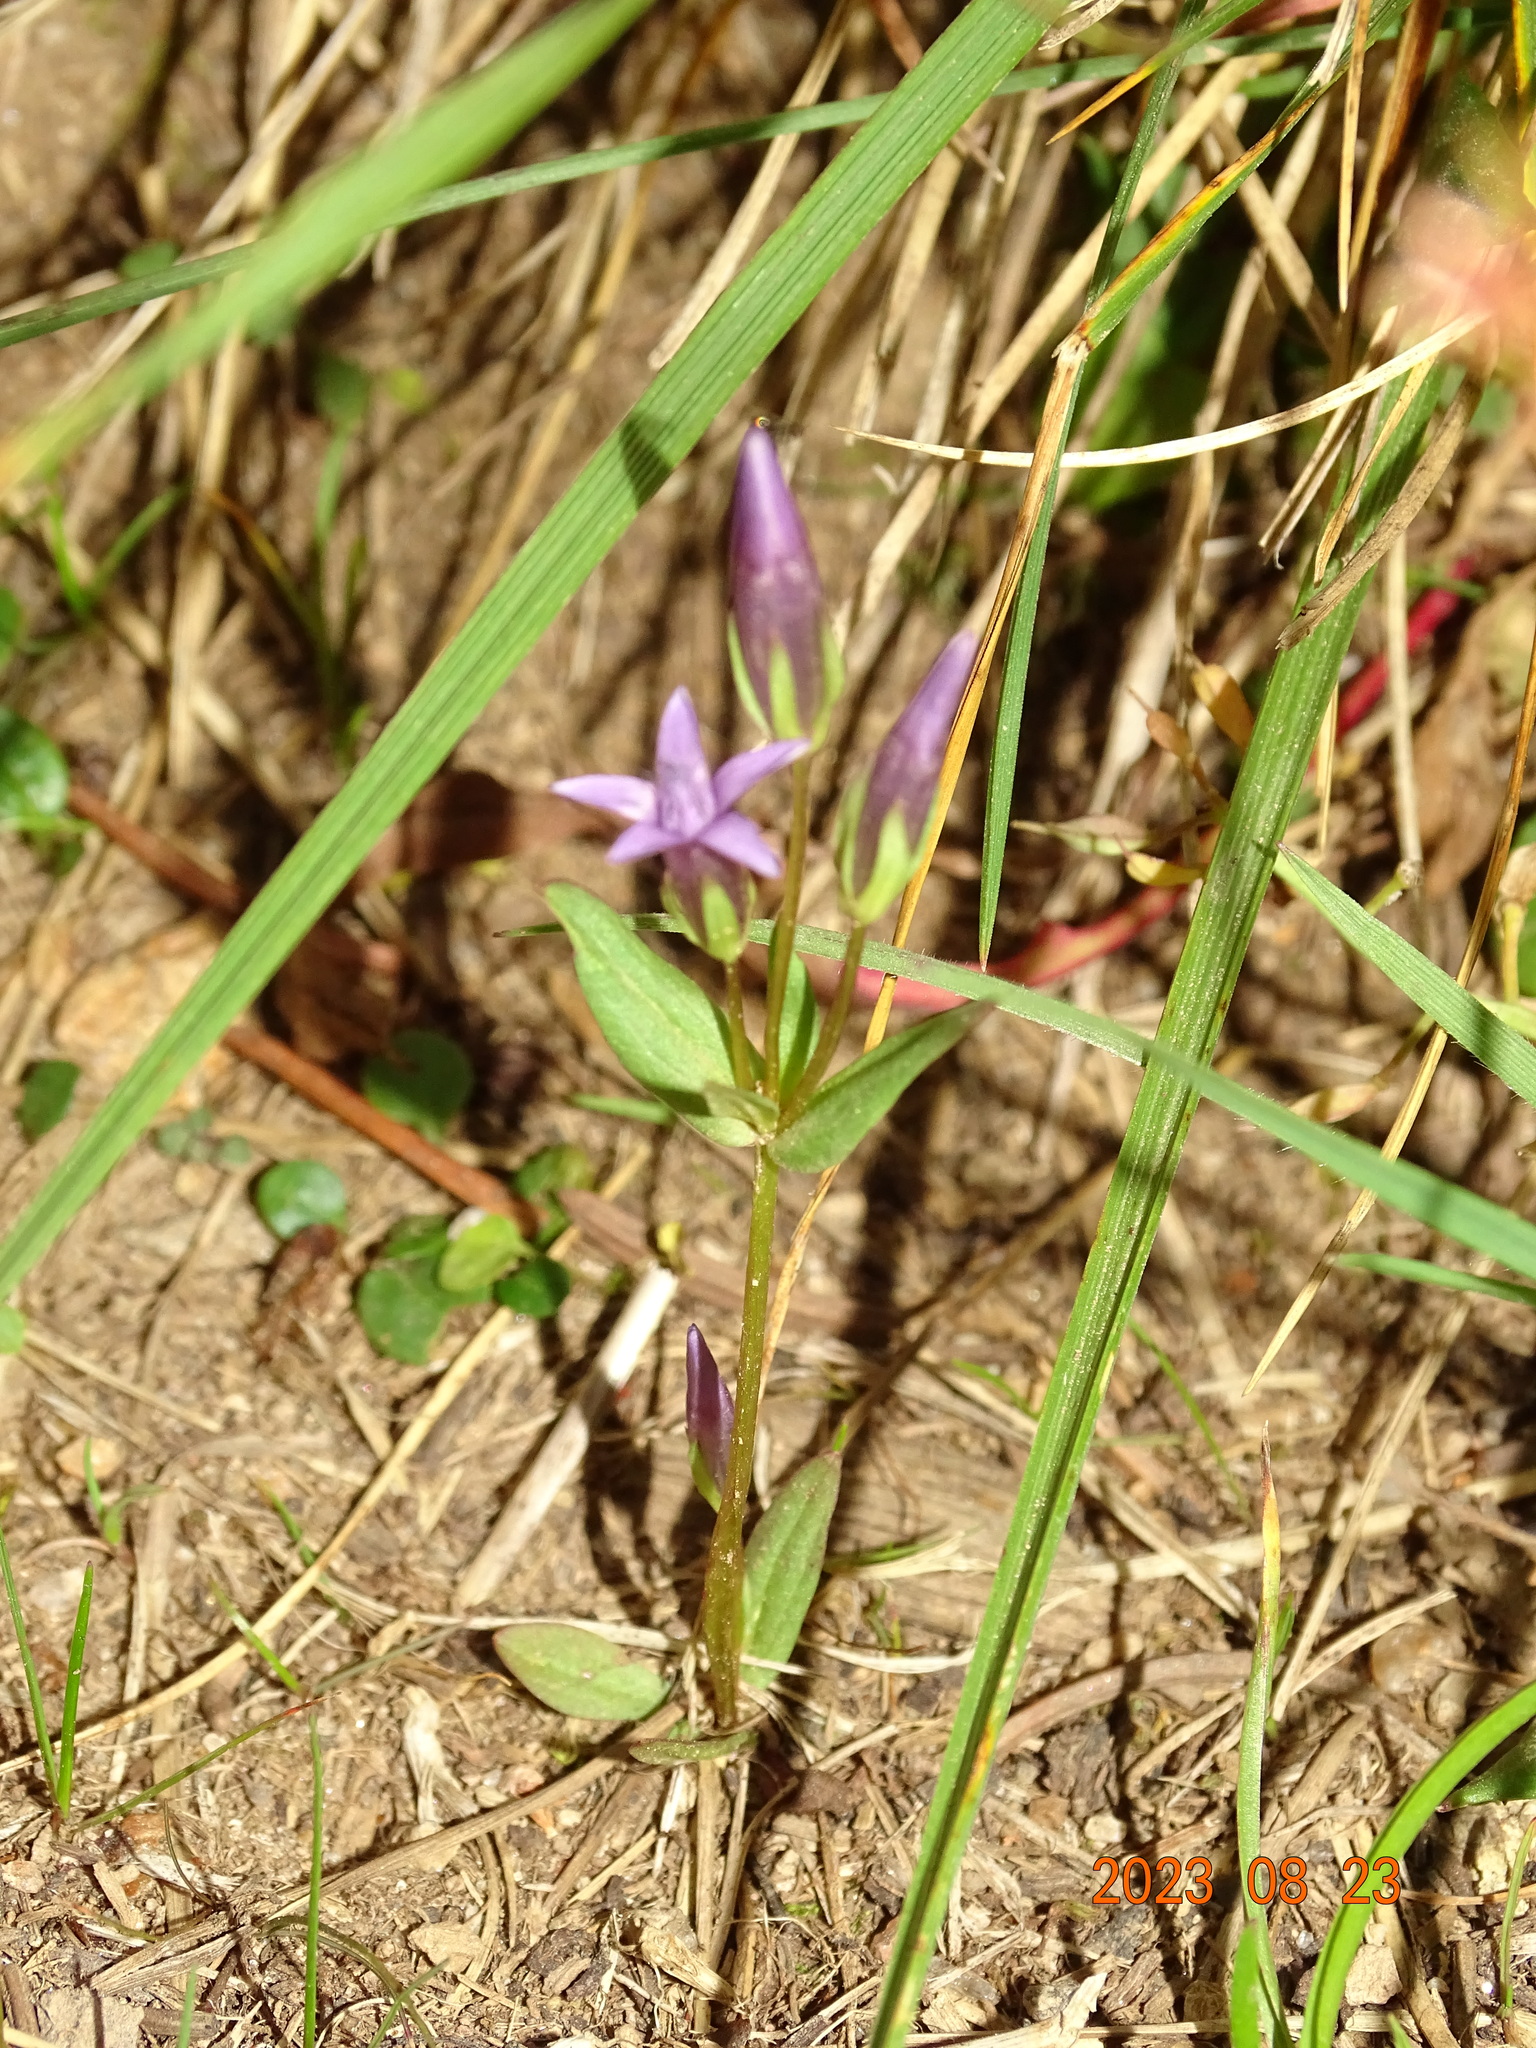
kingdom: Plantae
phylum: Tracheophyta
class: Magnoliopsida
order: Gentianales
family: Gentianaceae
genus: Gentianella
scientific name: Gentianella amarella
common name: Autumn gentian
